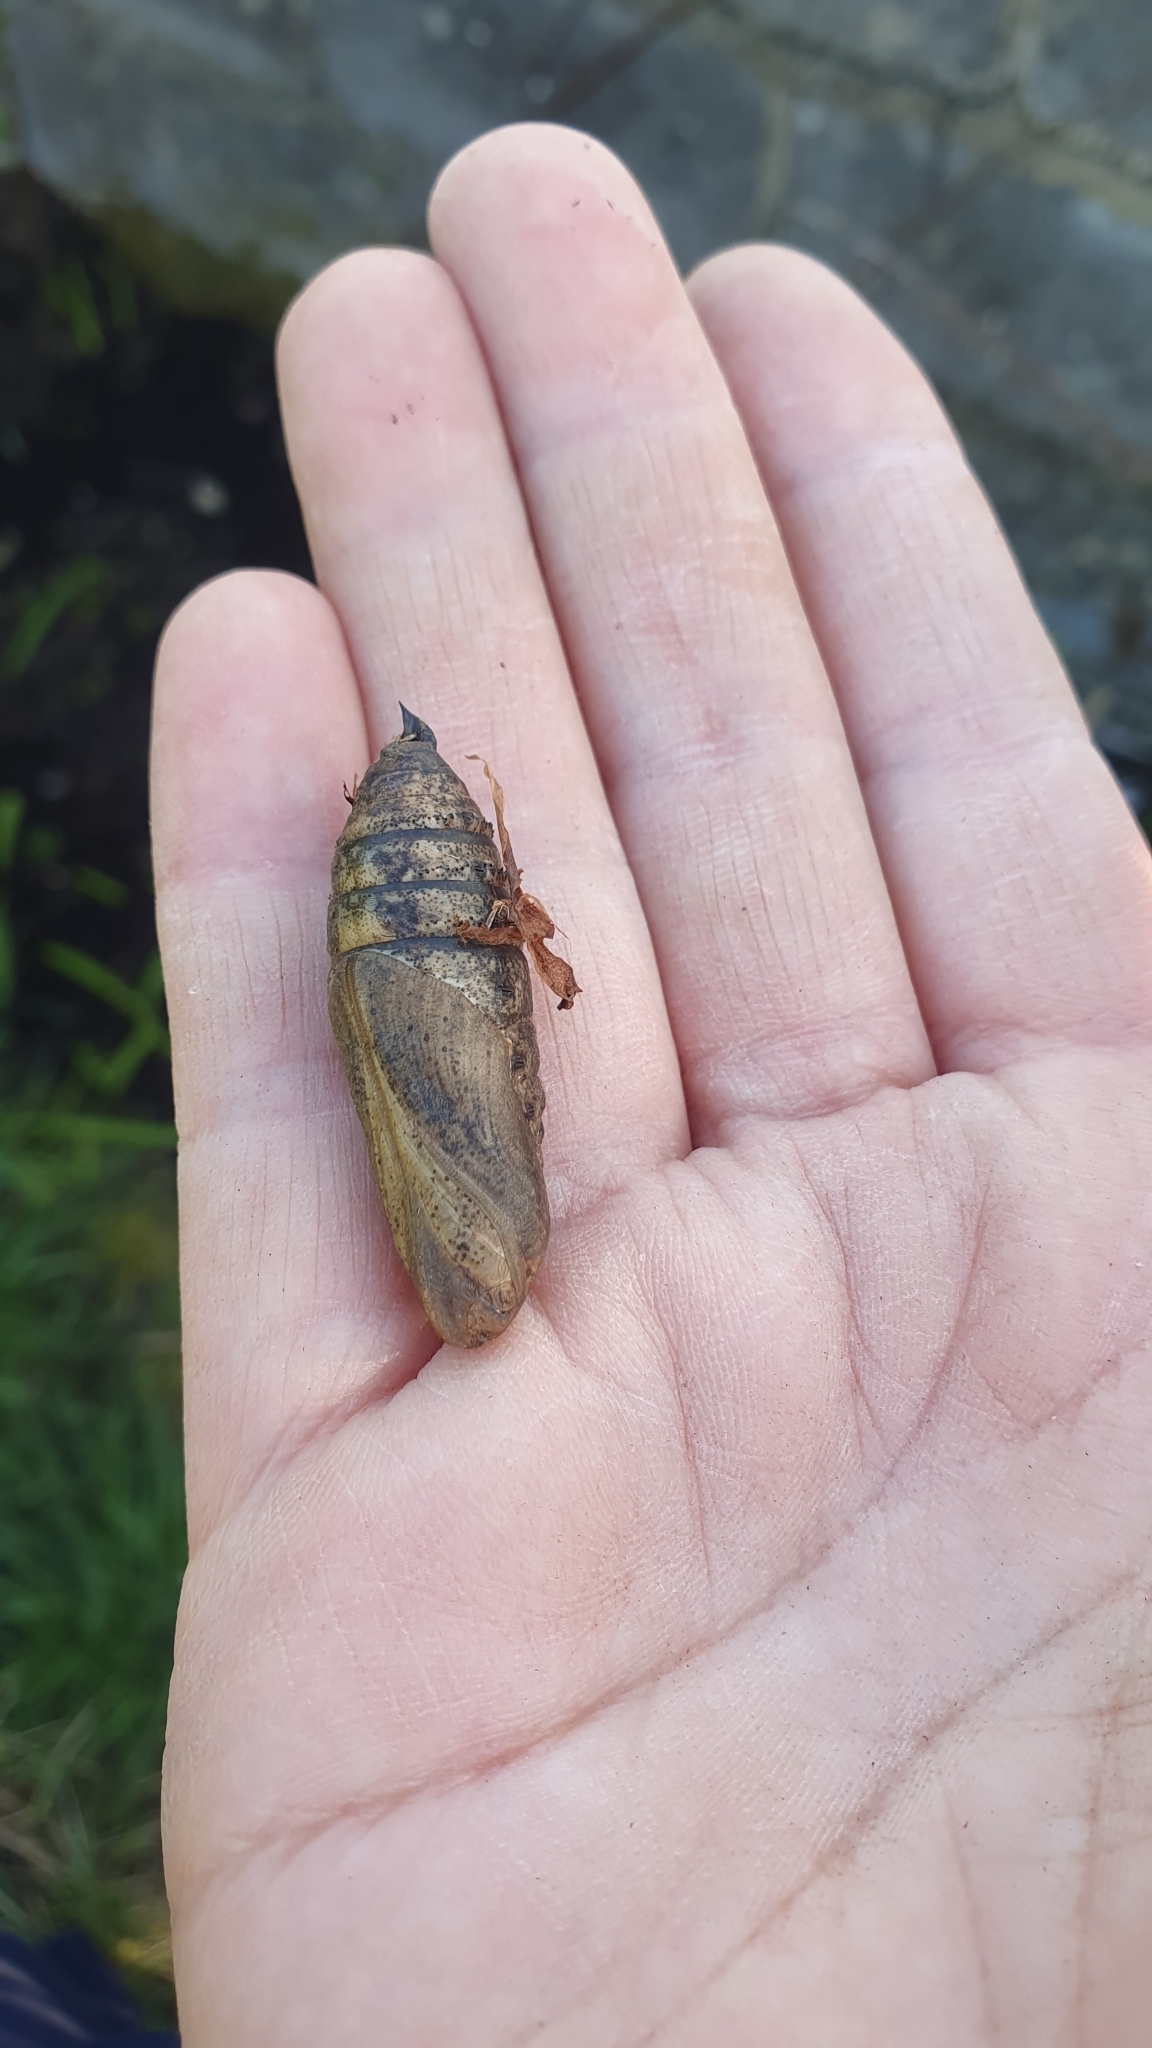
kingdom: Animalia
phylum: Arthropoda
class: Insecta
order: Lepidoptera
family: Sphingidae
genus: Deilephila
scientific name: Deilephila elpenor
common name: Elephant hawk-moth
